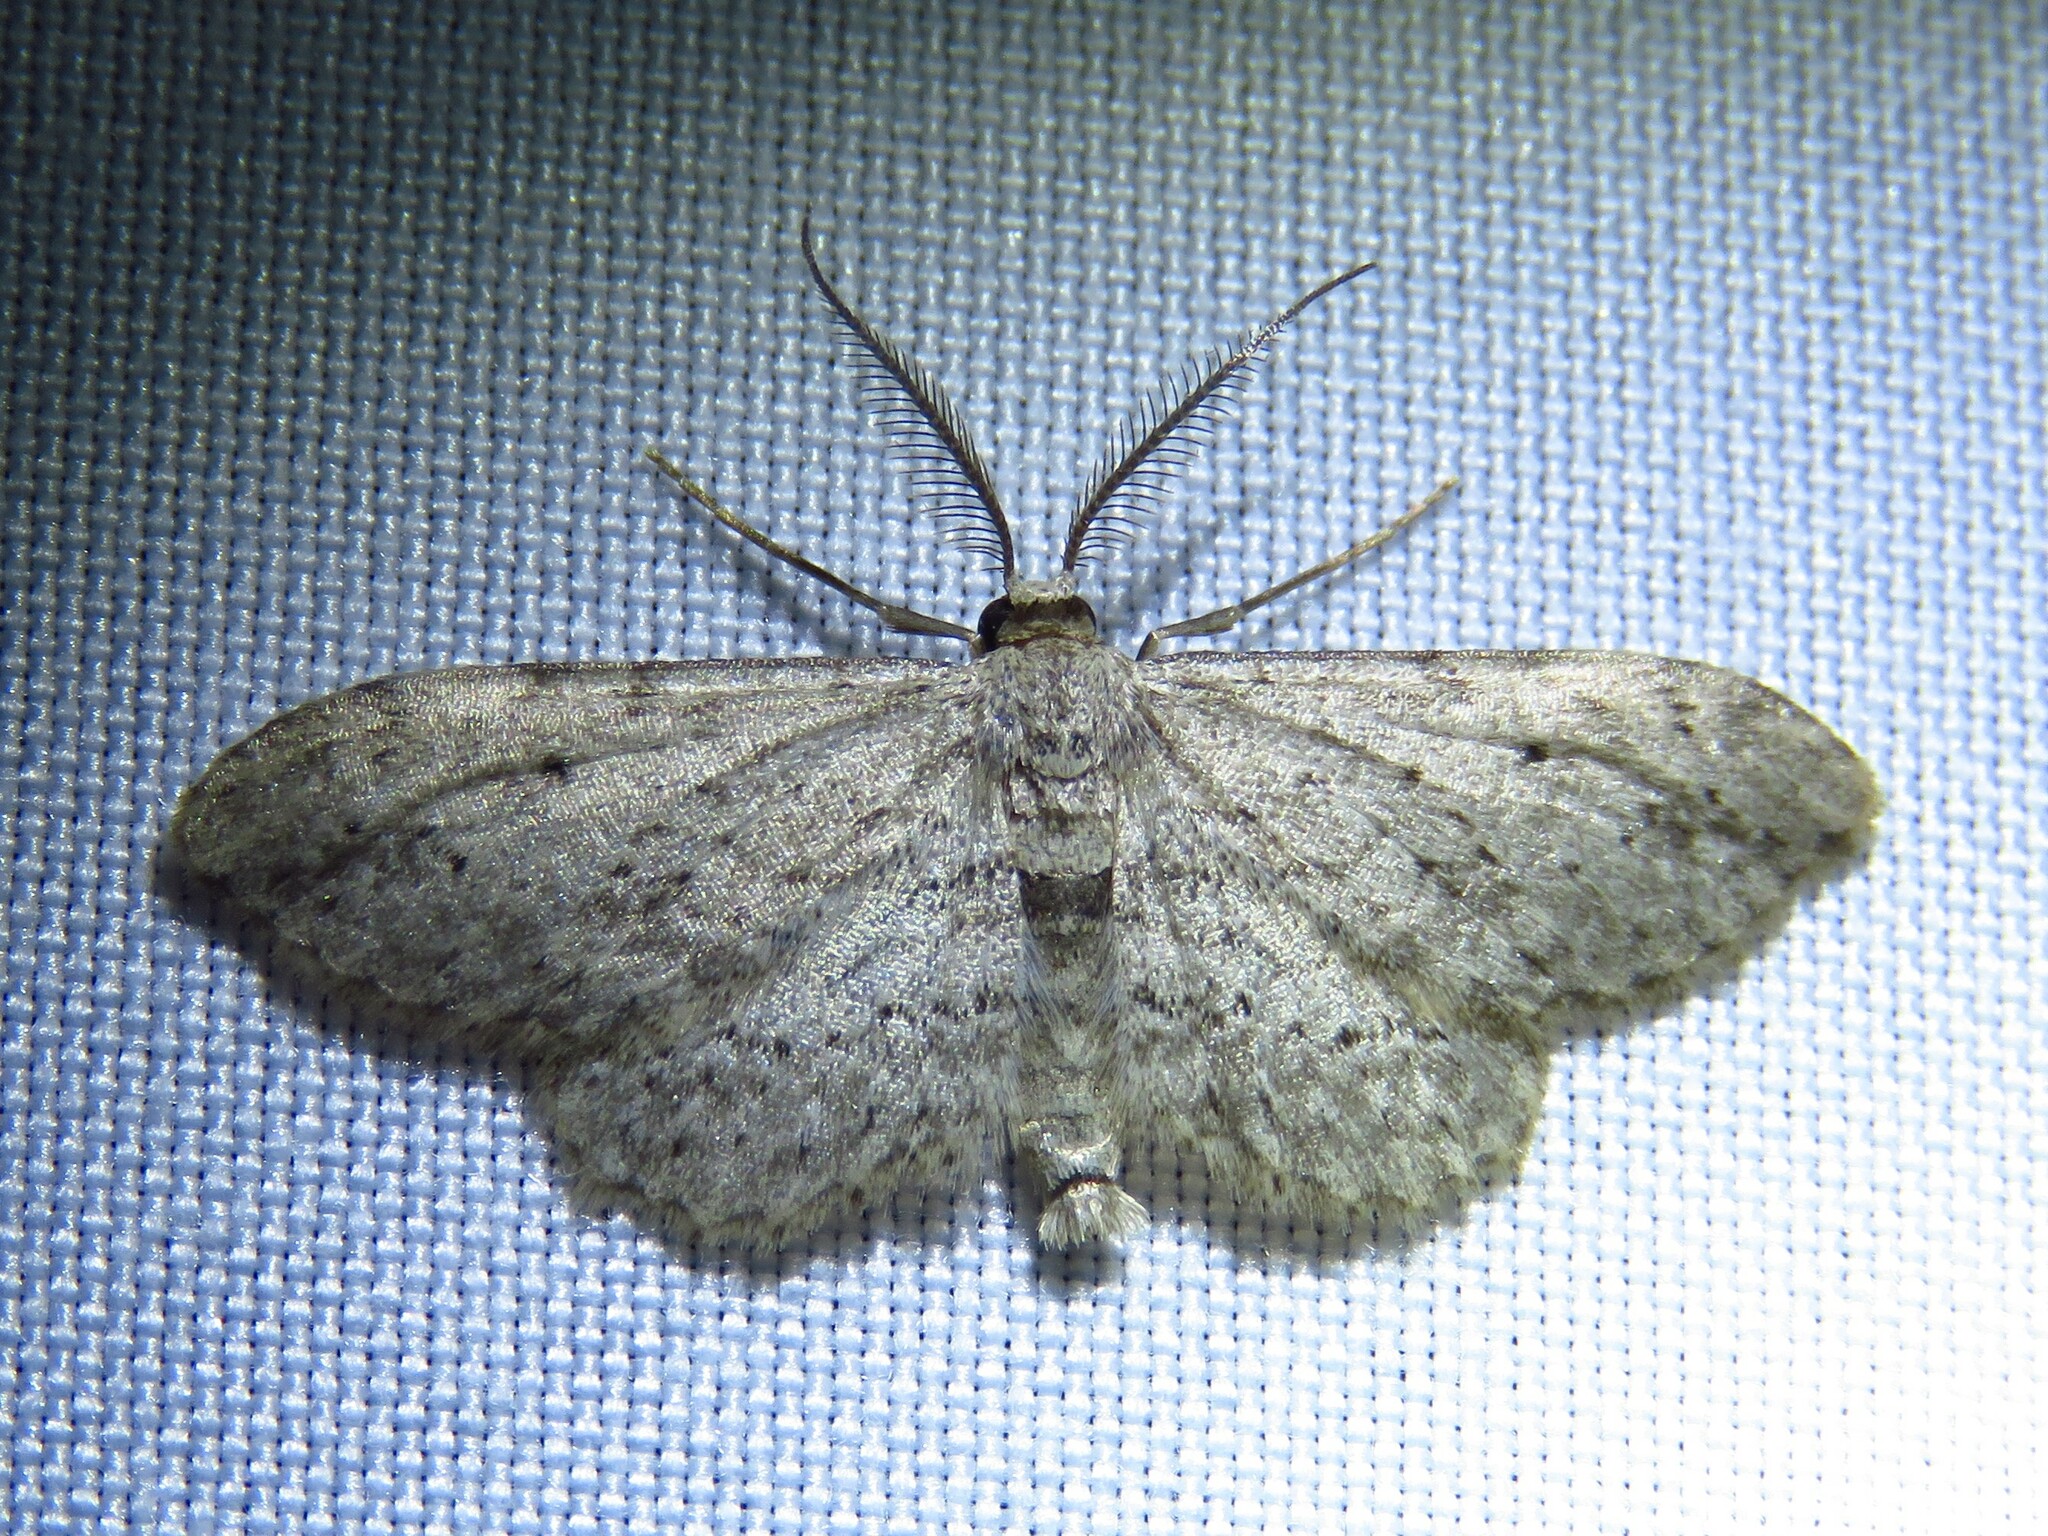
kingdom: Animalia
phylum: Arthropoda
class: Insecta
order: Lepidoptera
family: Geometridae
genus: Pimaphera
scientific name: Pimaphera sparsaria
